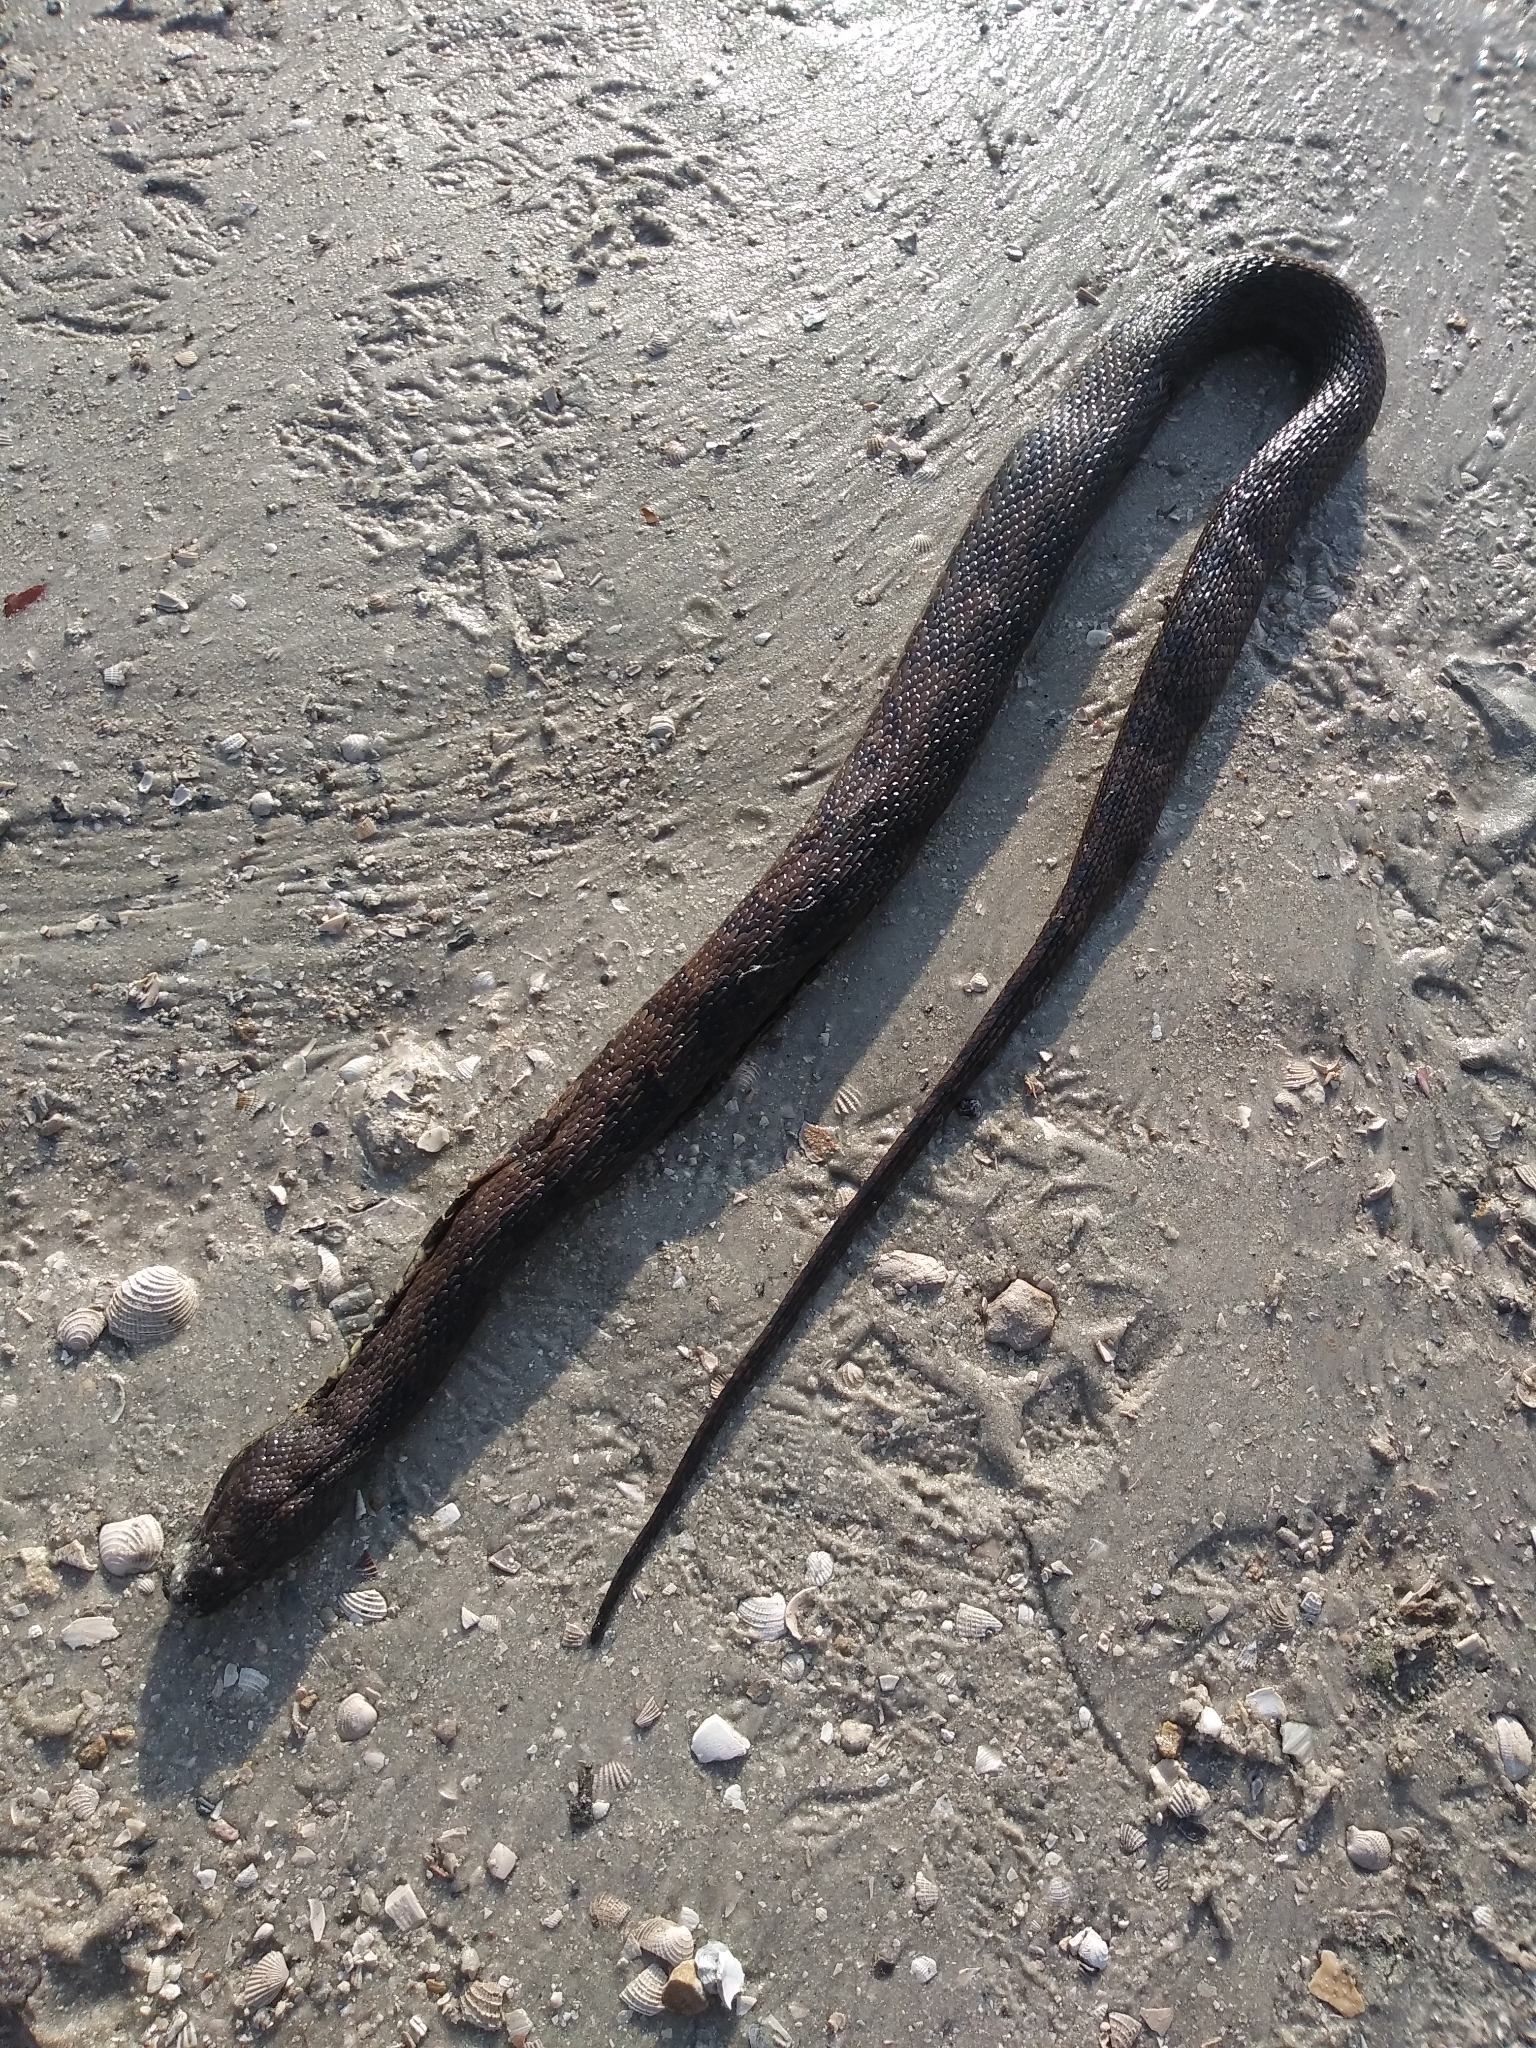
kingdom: Animalia
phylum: Chordata
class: Squamata
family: Colubridae
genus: Nerodia
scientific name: Nerodia taxispilota
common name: Brown water snake
